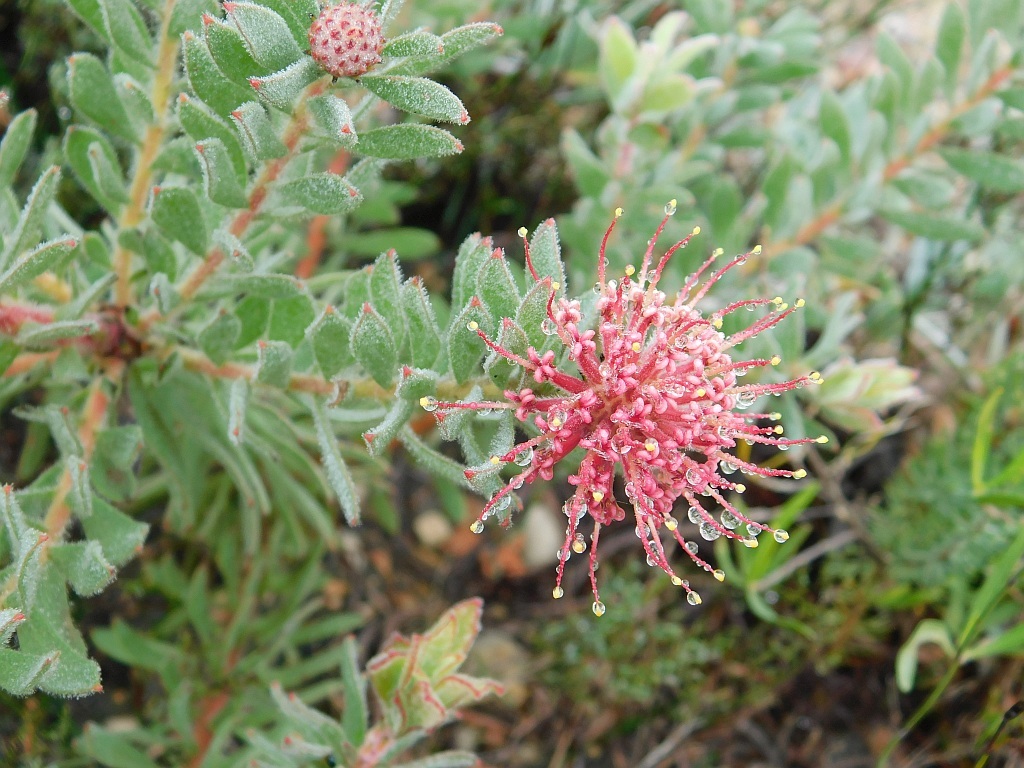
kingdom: Plantae
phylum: Tracheophyta
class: Magnoliopsida
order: Proteales
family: Proteaceae
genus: Leucospermum
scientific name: Leucospermum calligerum
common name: Arid pincushion
